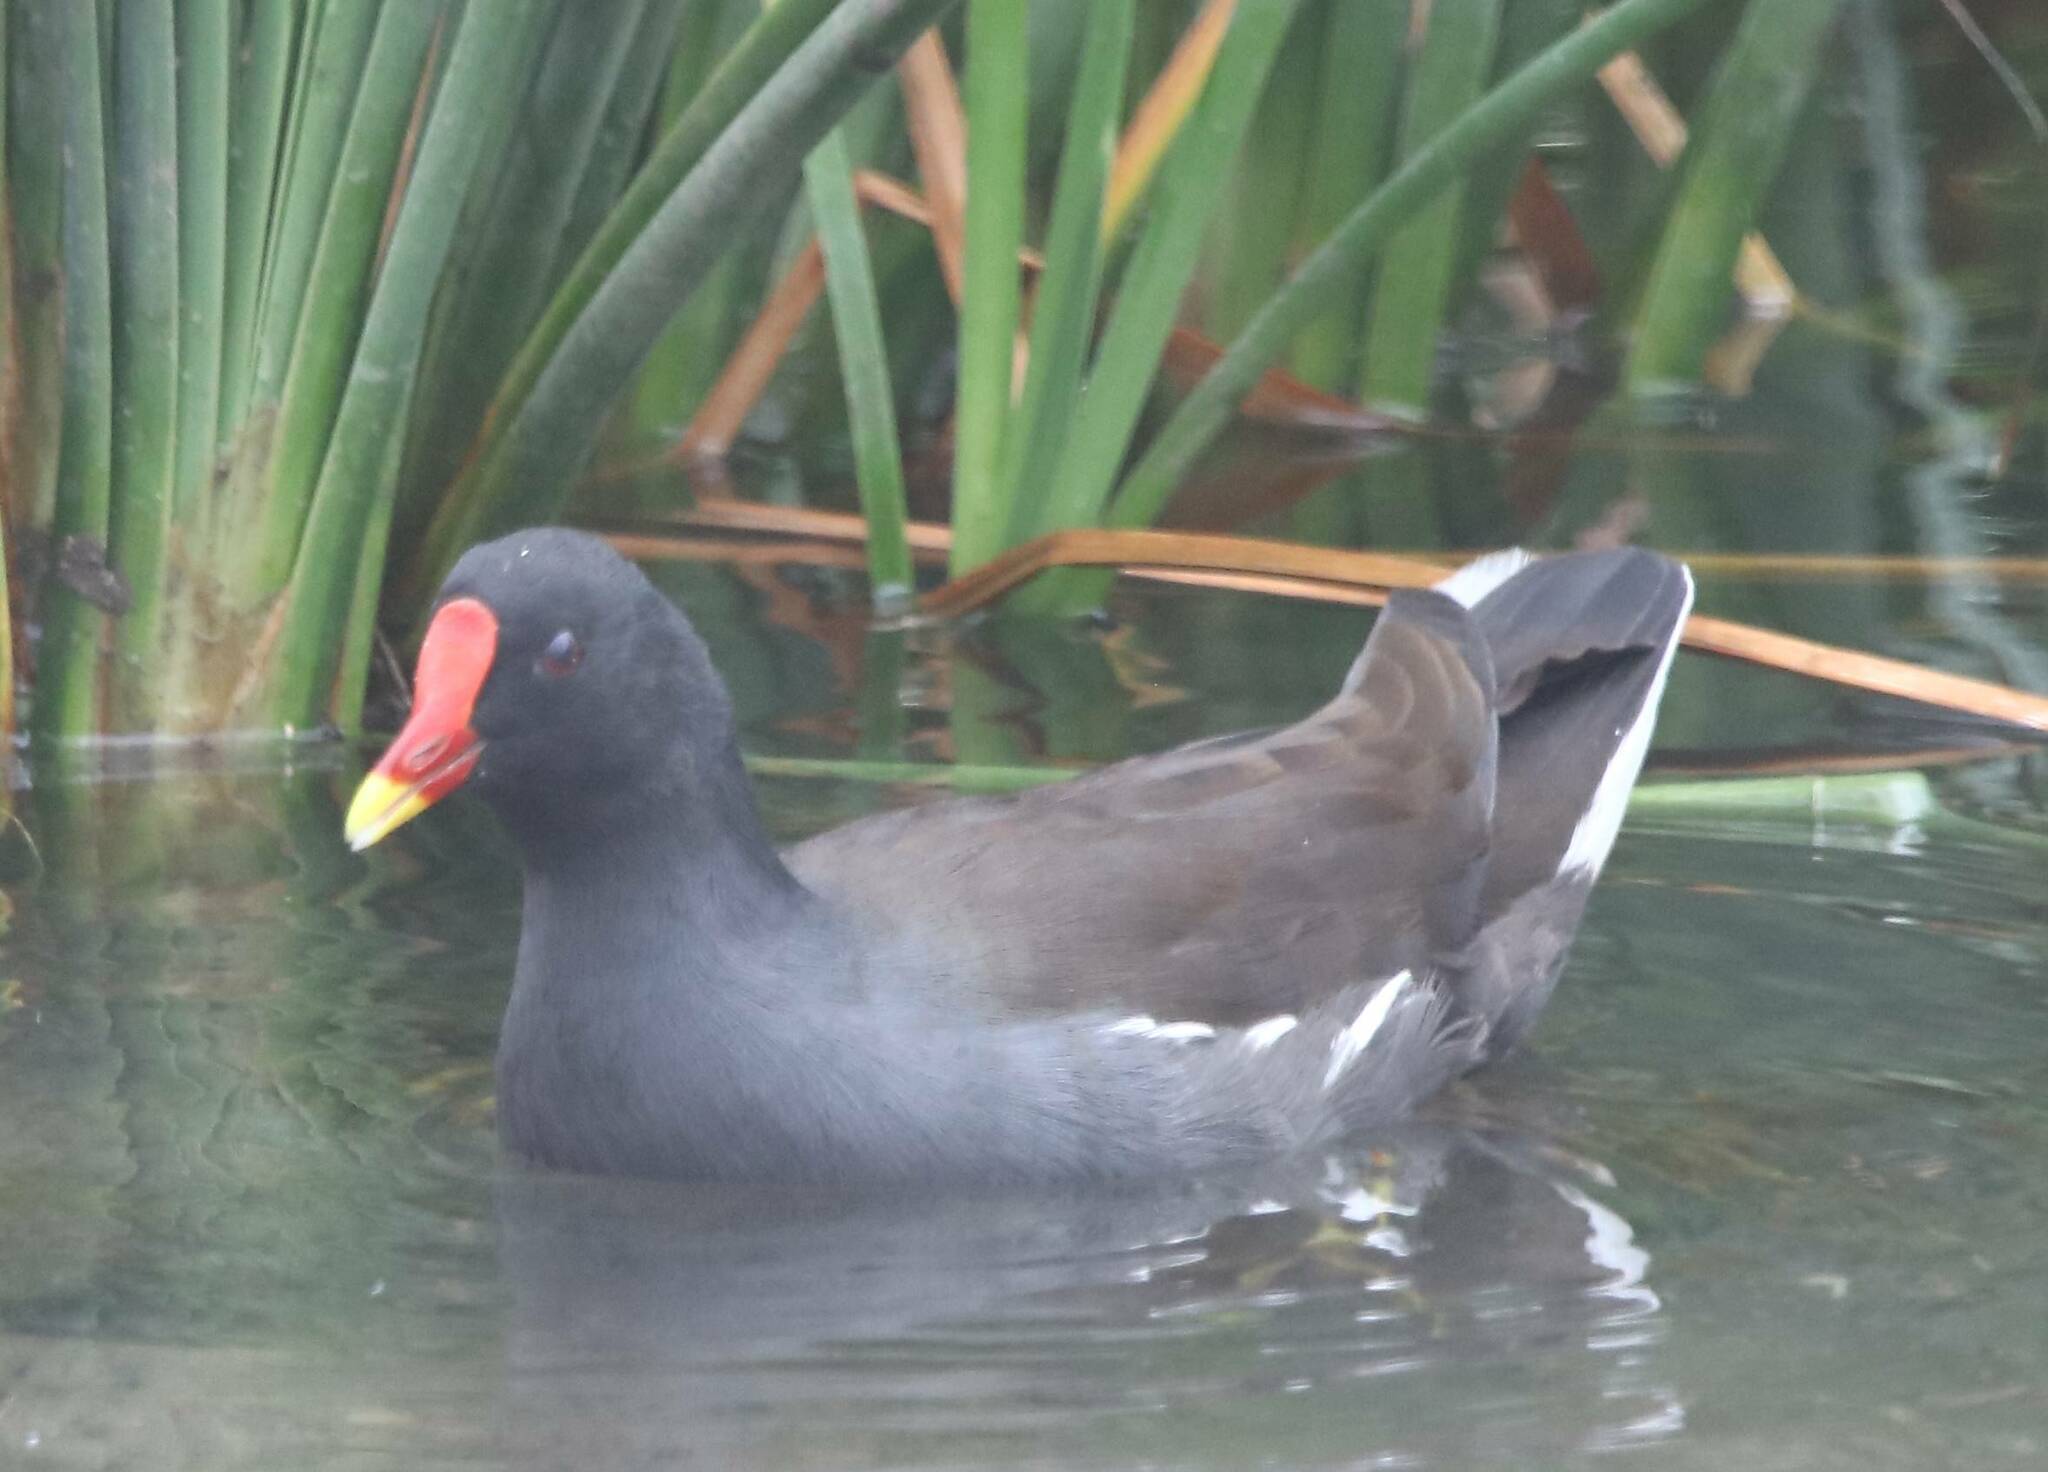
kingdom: Animalia
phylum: Chordata
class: Aves
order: Gruiformes
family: Rallidae
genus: Gallinula
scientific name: Gallinula chloropus
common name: Common moorhen
